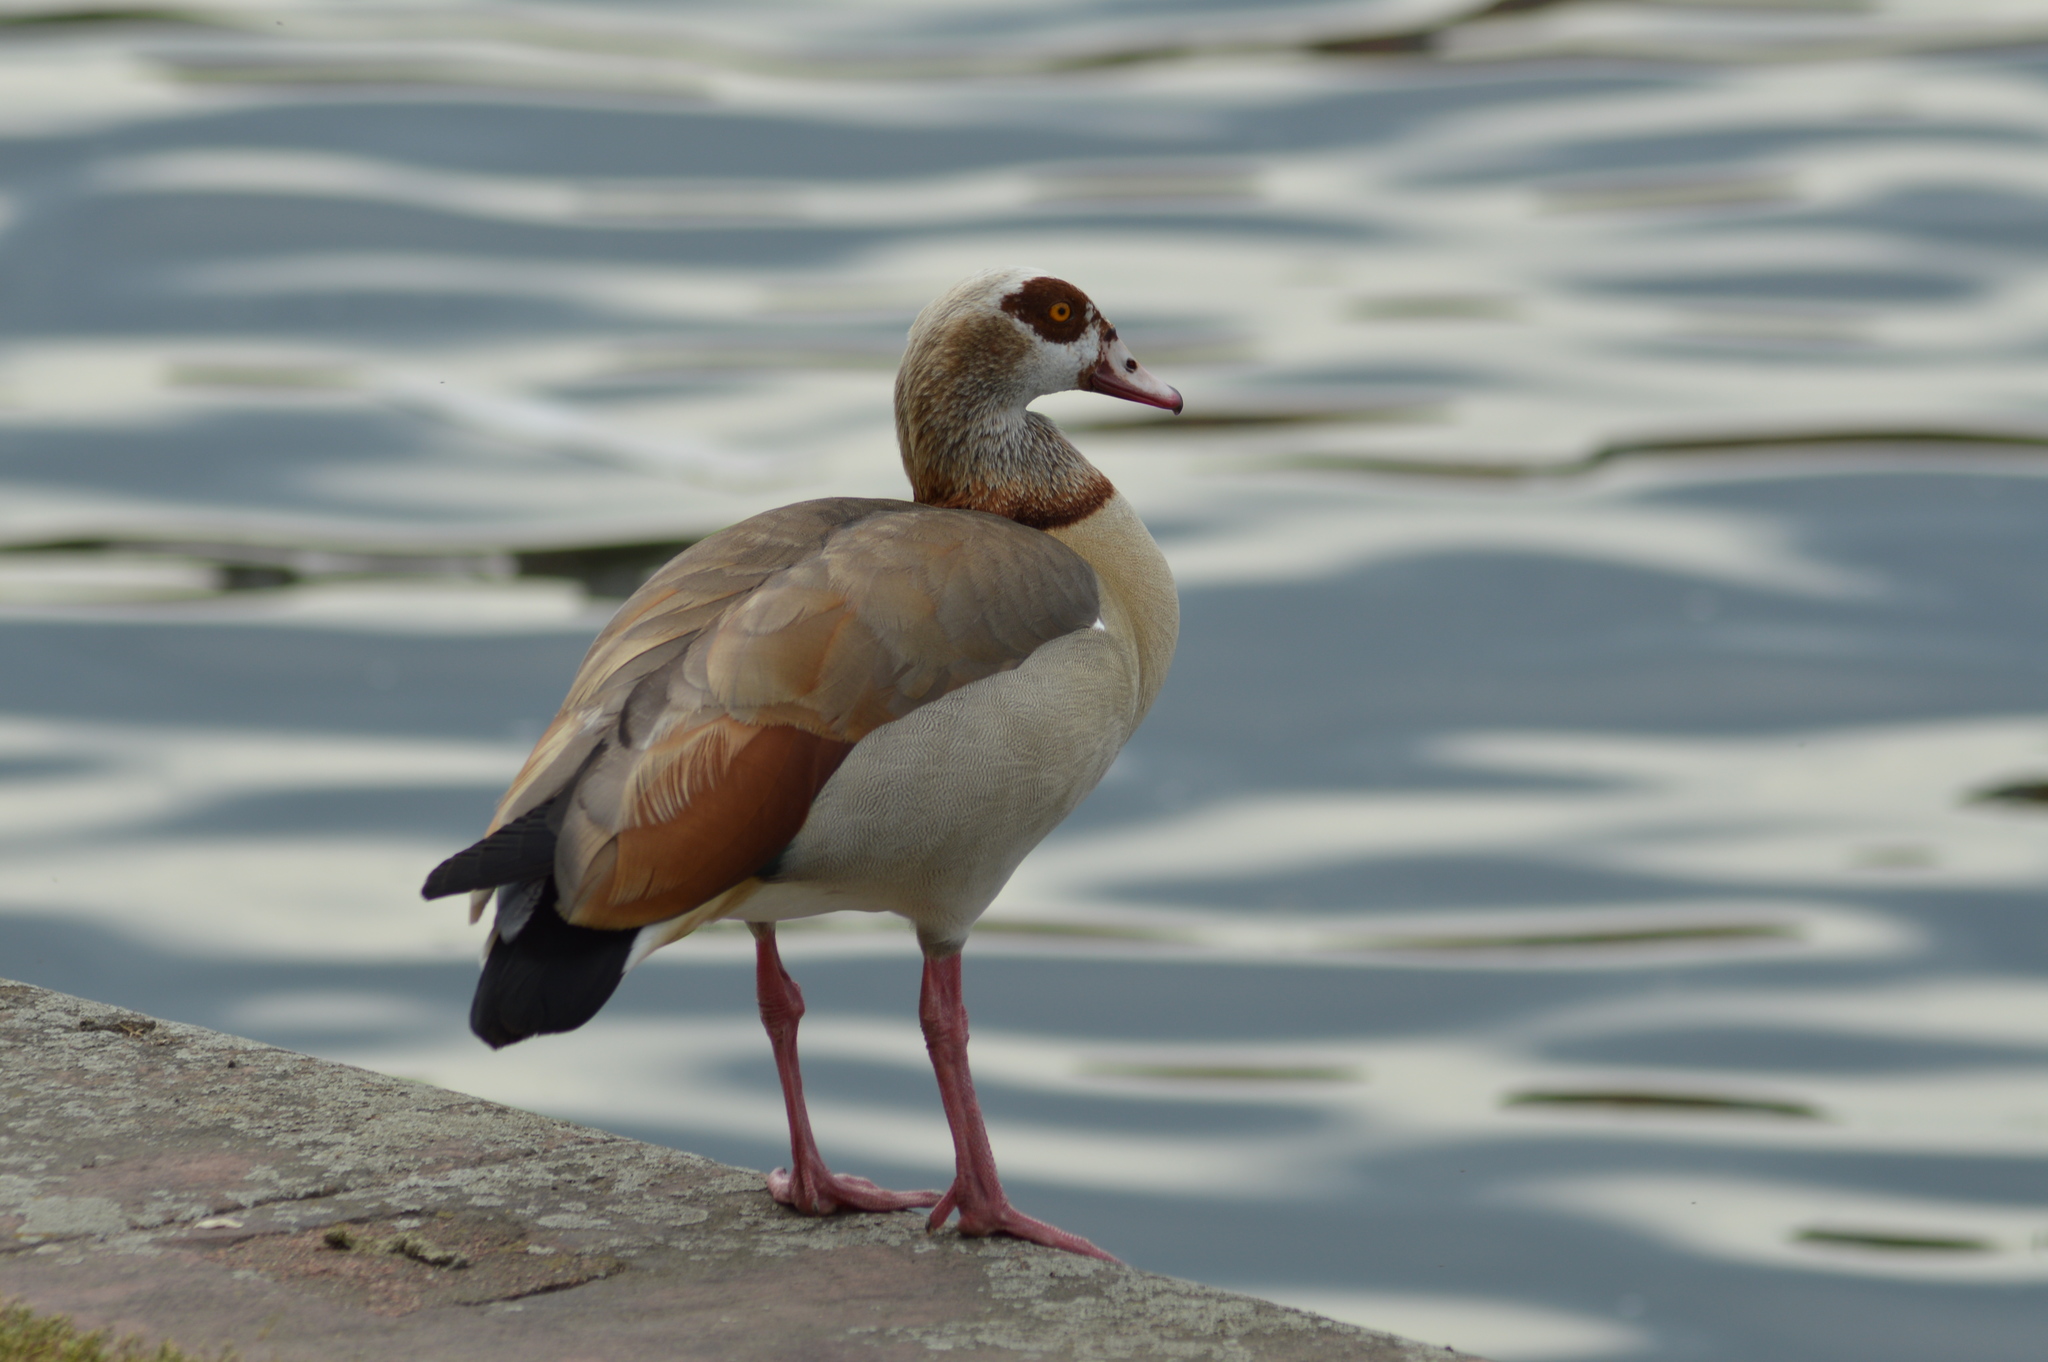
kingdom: Animalia
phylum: Chordata
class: Aves
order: Anseriformes
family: Anatidae
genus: Alopochen
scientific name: Alopochen aegyptiaca
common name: Egyptian goose
